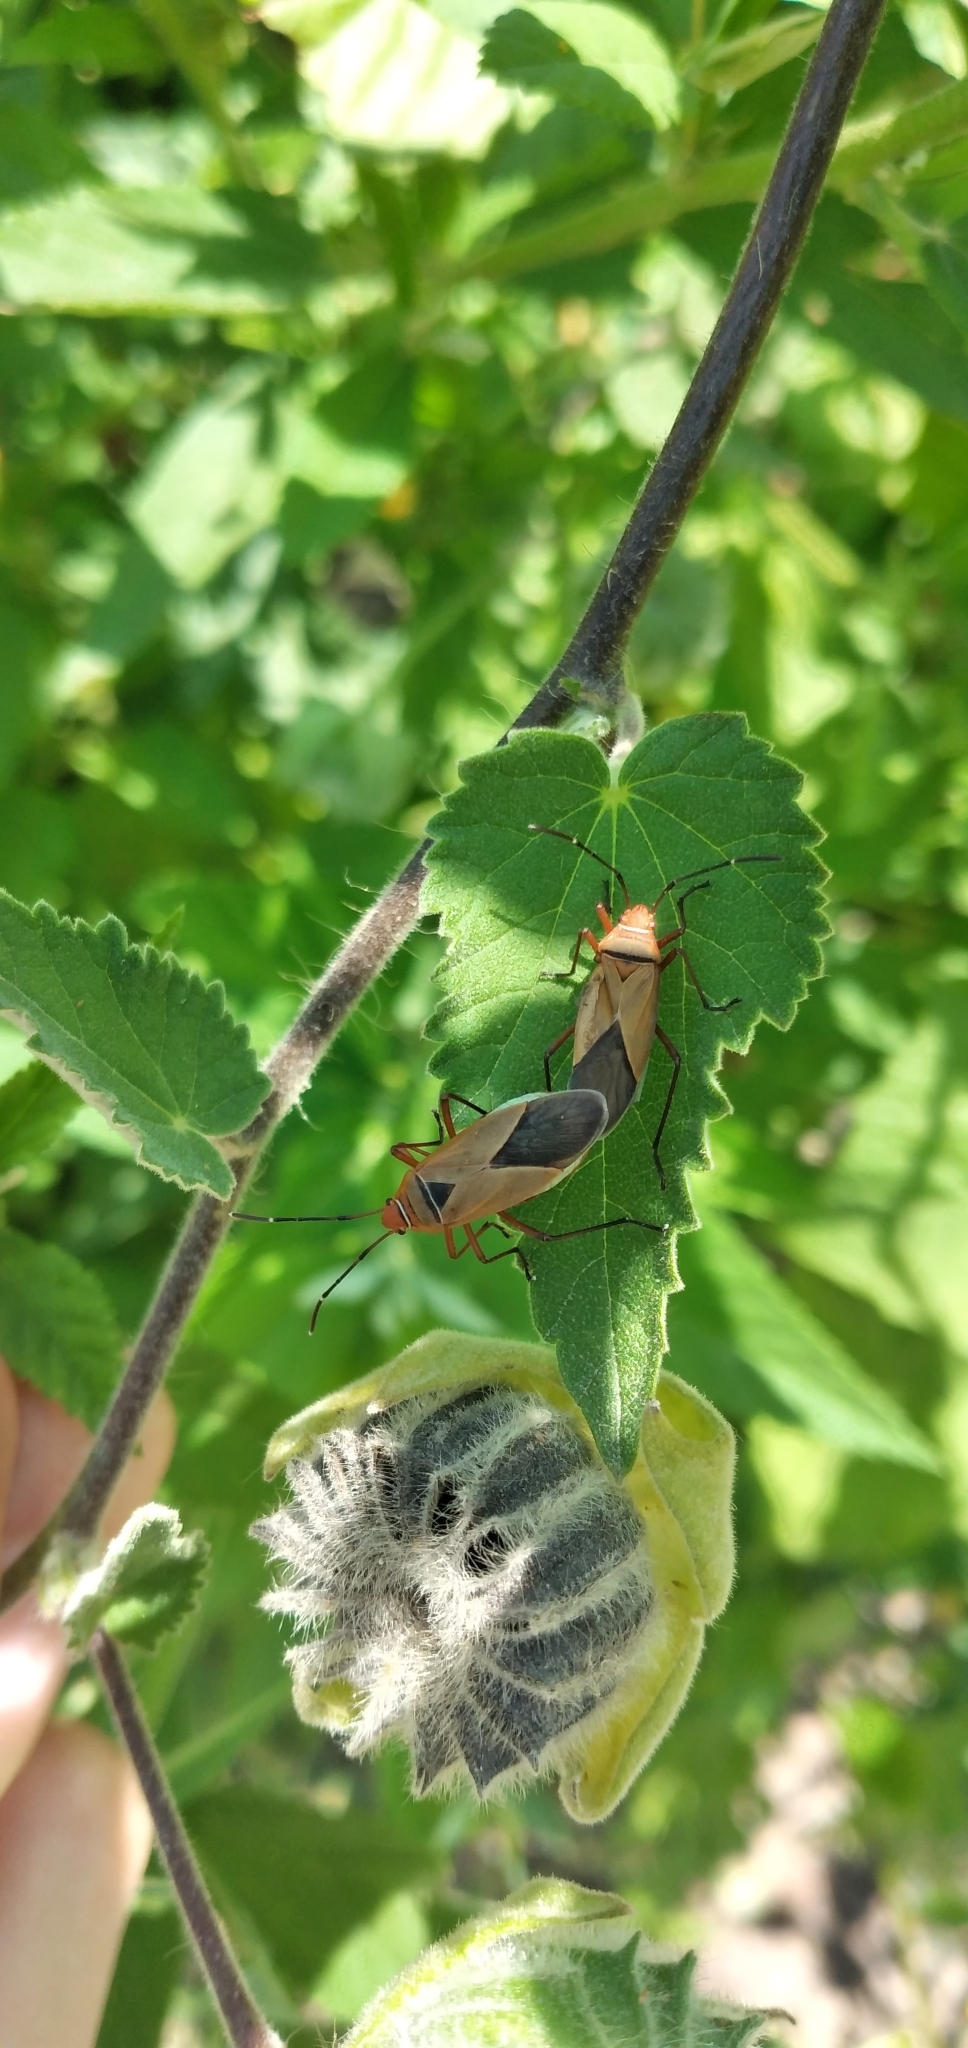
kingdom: Animalia
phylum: Arthropoda
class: Insecta
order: Hemiptera
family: Pyrrhocoridae
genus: Dysdercus
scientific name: Dysdercus
